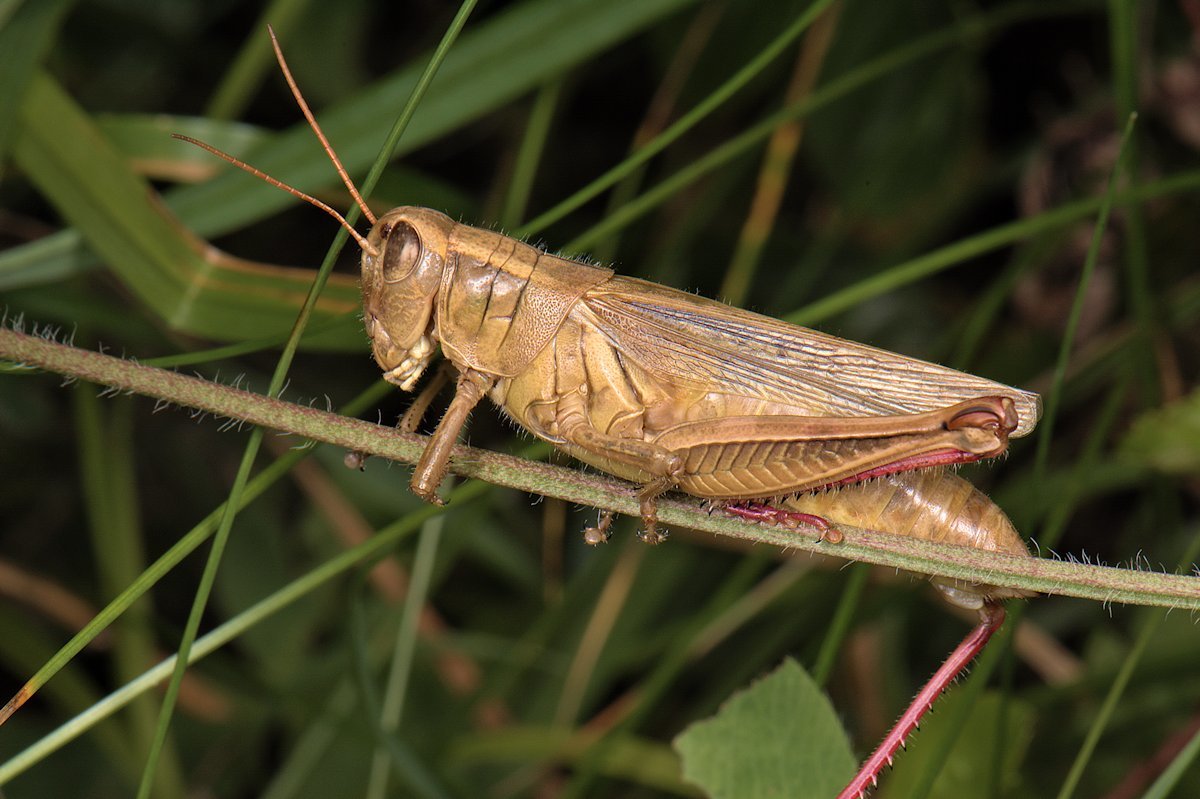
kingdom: Animalia
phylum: Arthropoda
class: Insecta
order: Orthoptera
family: Acrididae
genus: Melanoplus
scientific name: Melanoplus bivittatus
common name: Two-striped grasshopper
